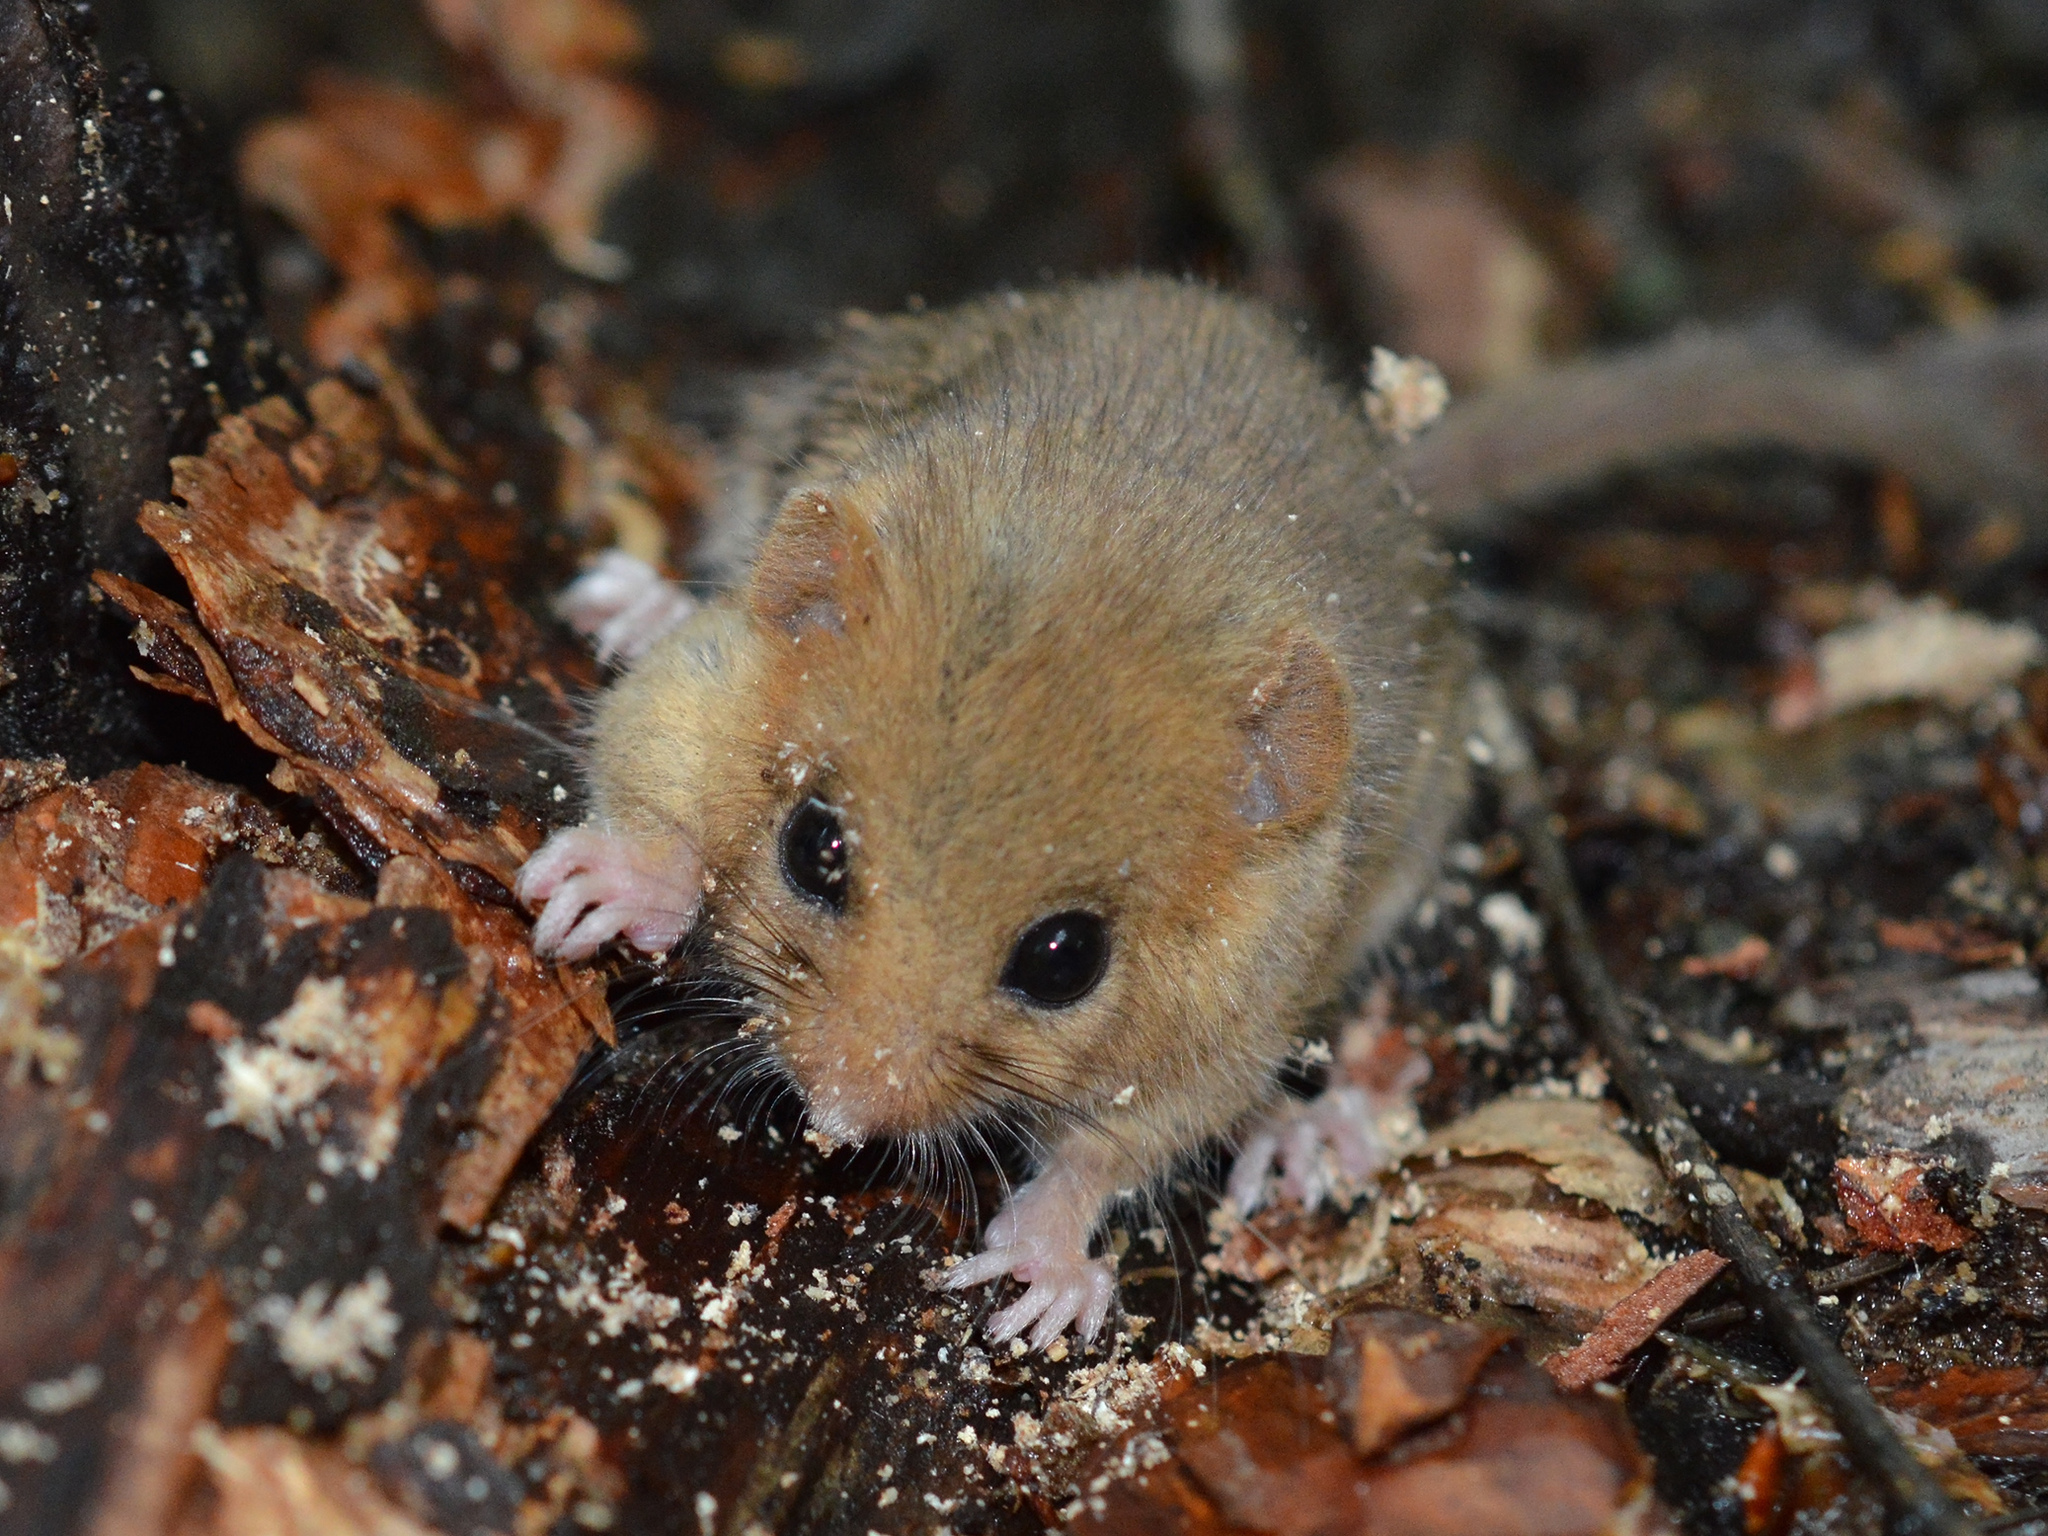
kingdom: Animalia
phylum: Chordata
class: Mammalia
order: Rodentia
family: Gliridae
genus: Muscardinus
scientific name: Muscardinus avellanarius
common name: Hazel dormouse
